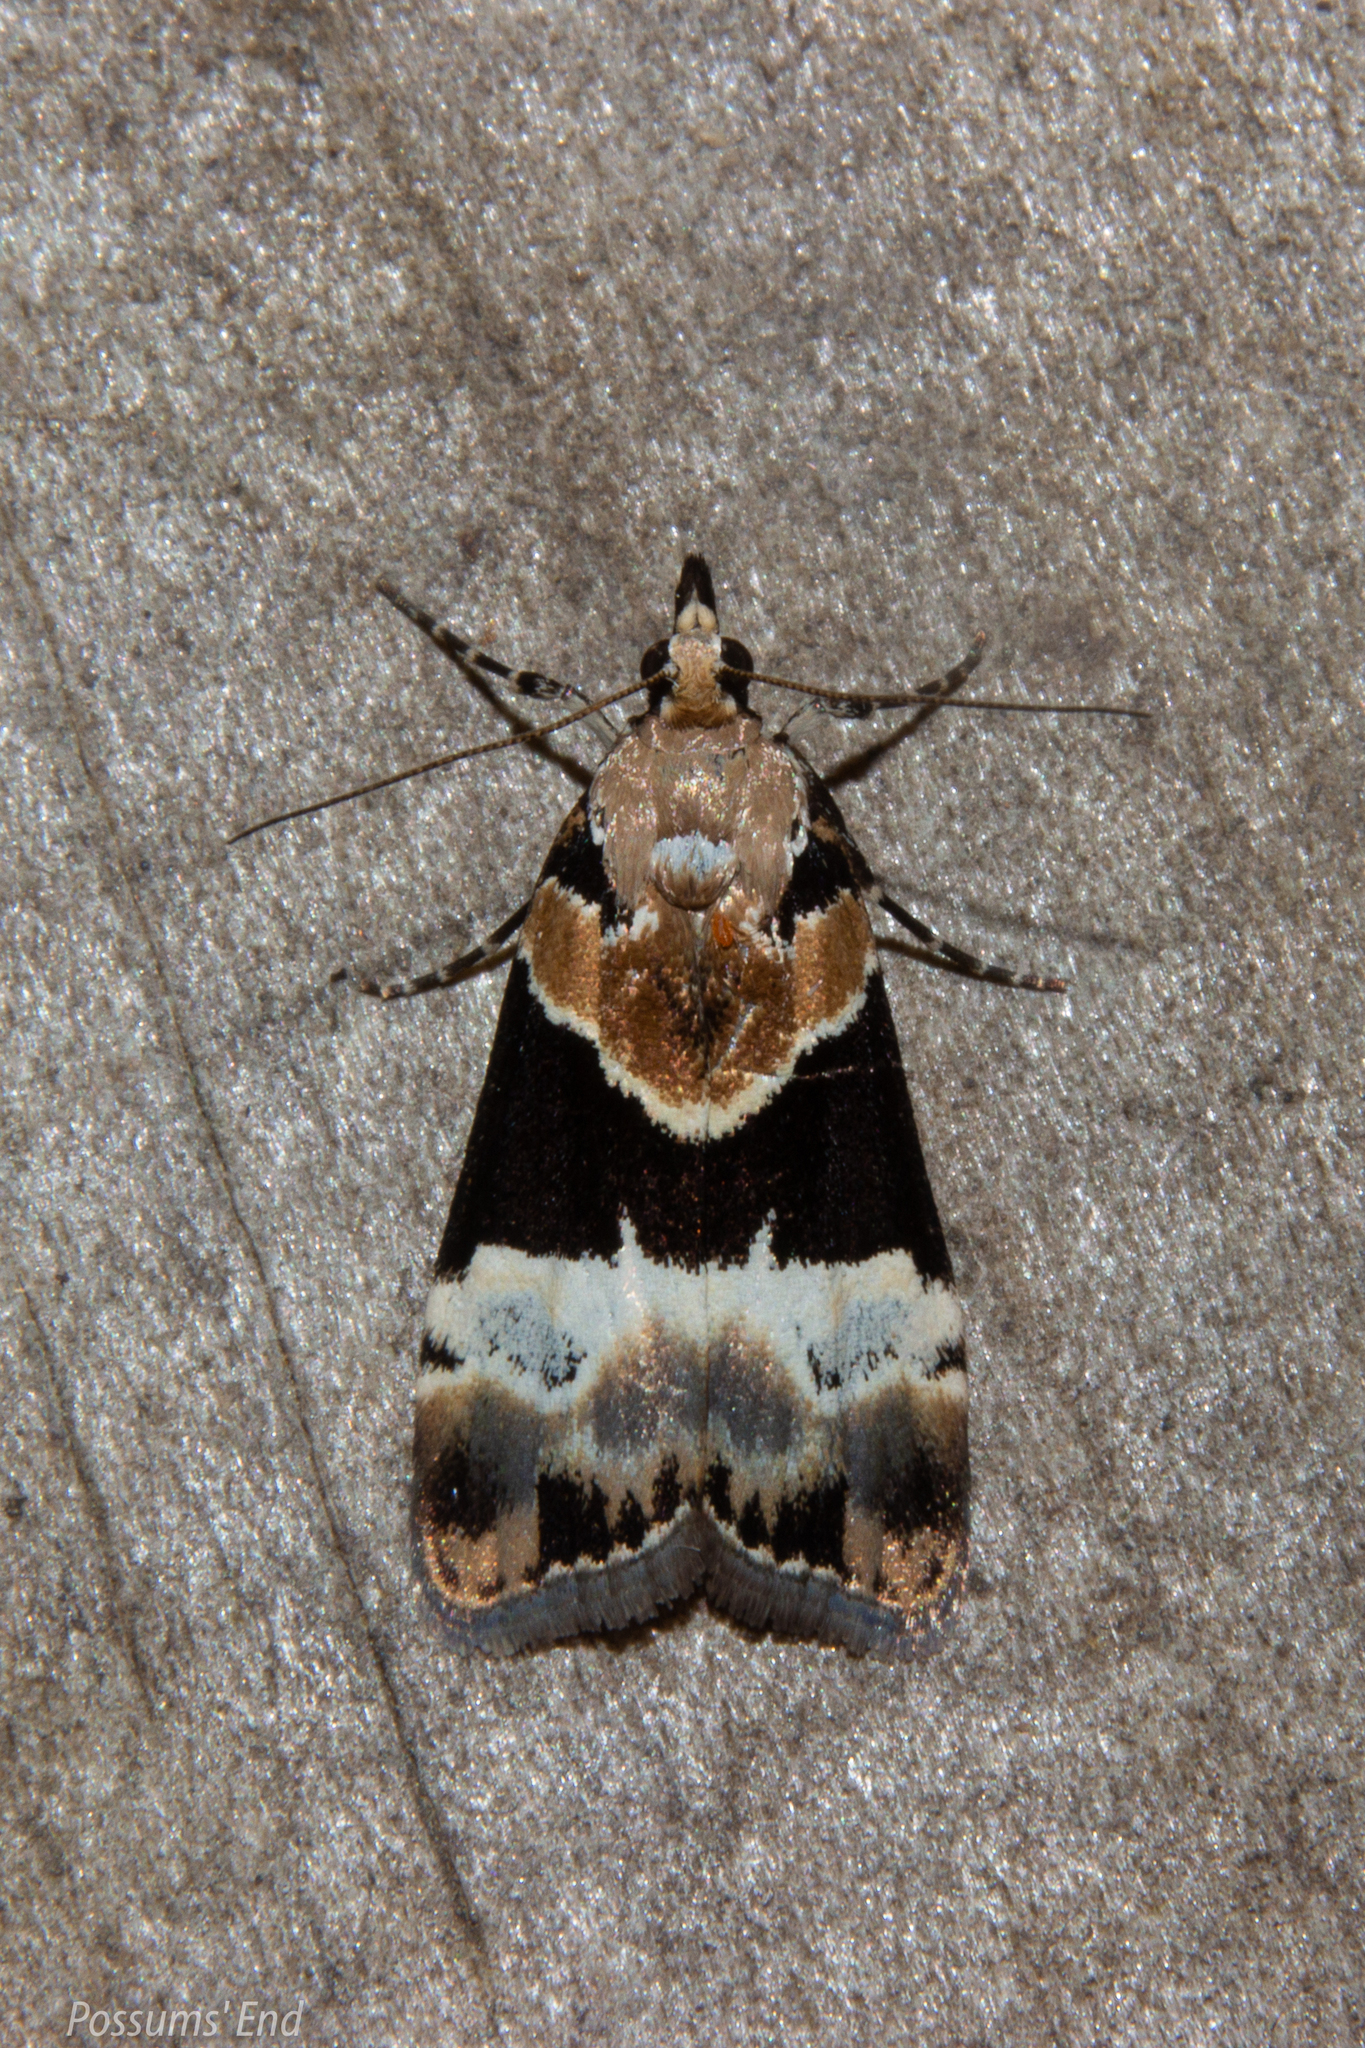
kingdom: Animalia
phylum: Arthropoda
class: Insecta
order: Lepidoptera
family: Crambidae
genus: Eudonia
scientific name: Eudonia aspidota
